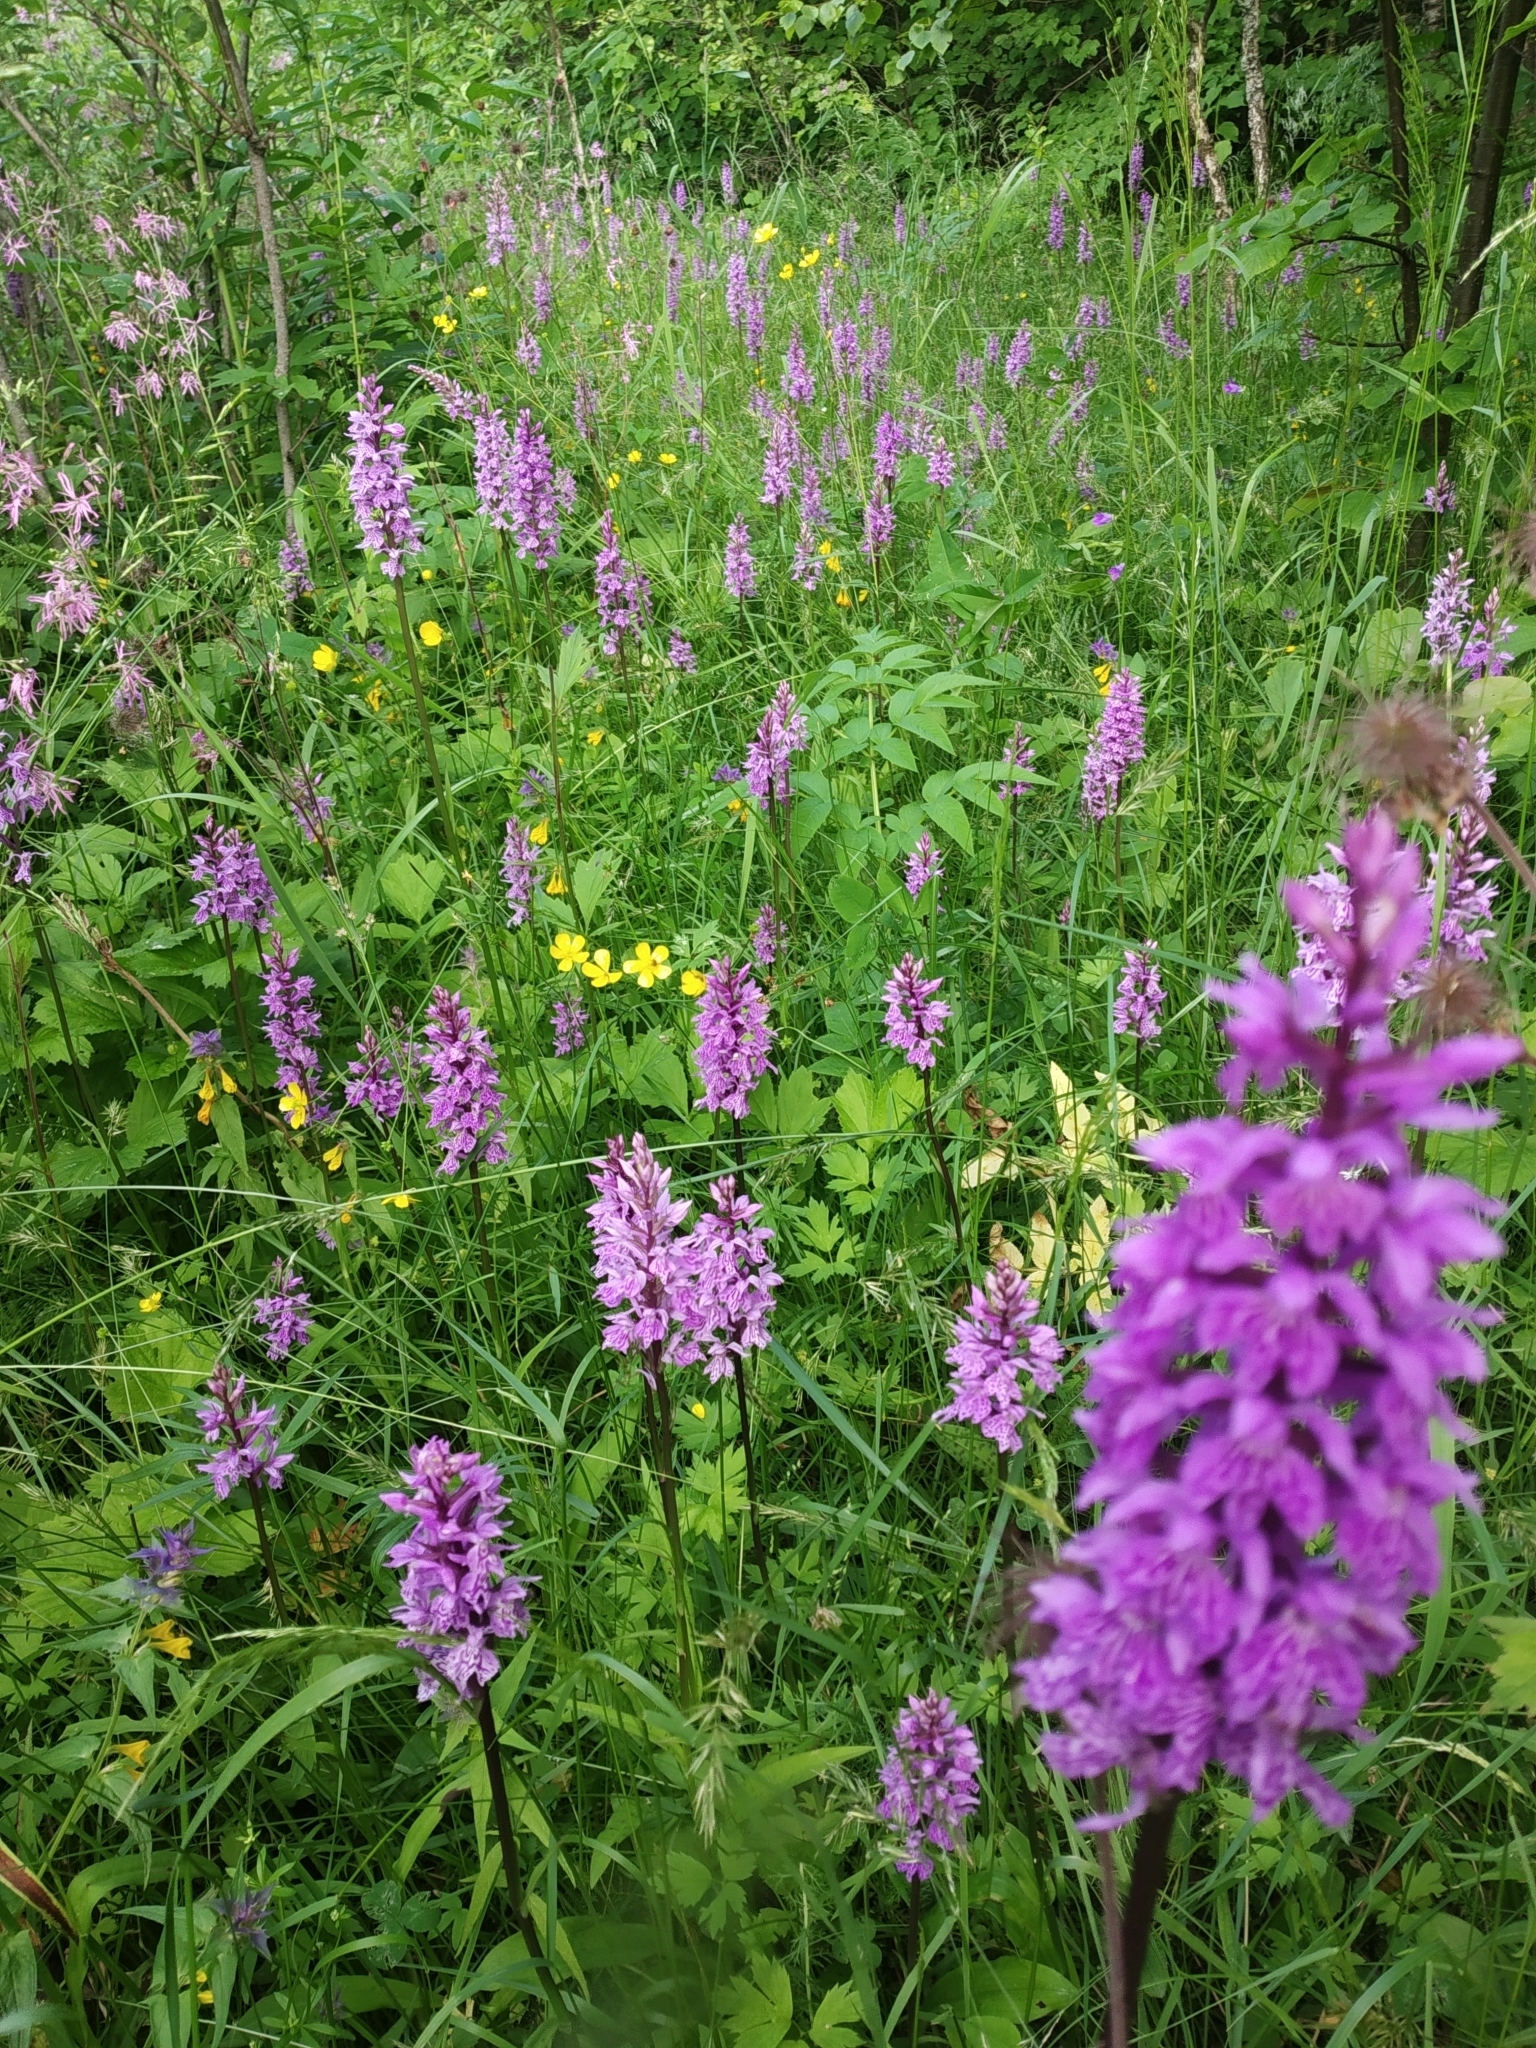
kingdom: Plantae
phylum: Tracheophyta
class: Liliopsida
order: Asparagales
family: Orchidaceae
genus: Dactylorhiza
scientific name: Dactylorhiza maculata
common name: Heath spotted-orchid
